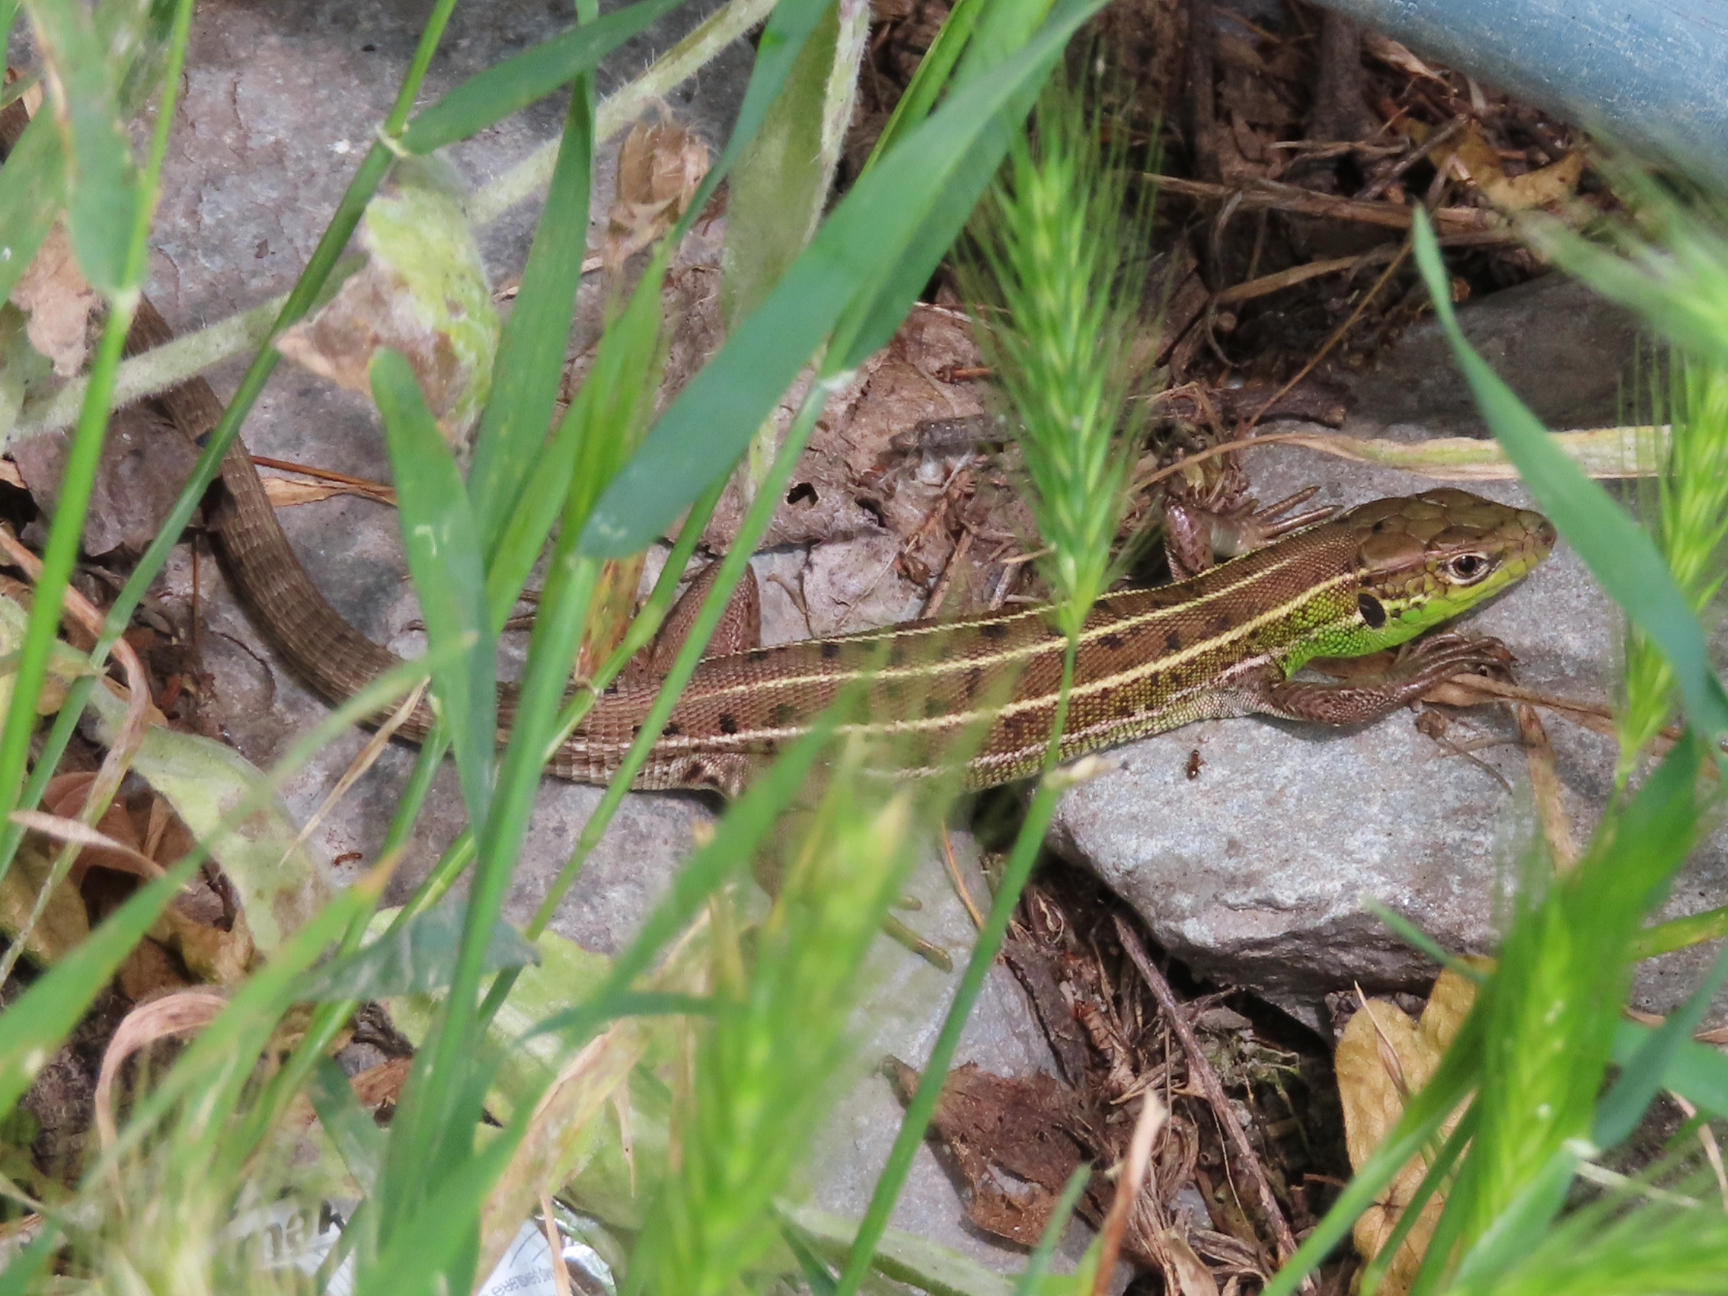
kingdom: Animalia
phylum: Chordata
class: Squamata
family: Lacertidae
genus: Lacerta
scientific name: Lacerta strigata
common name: Caspian green lizard
